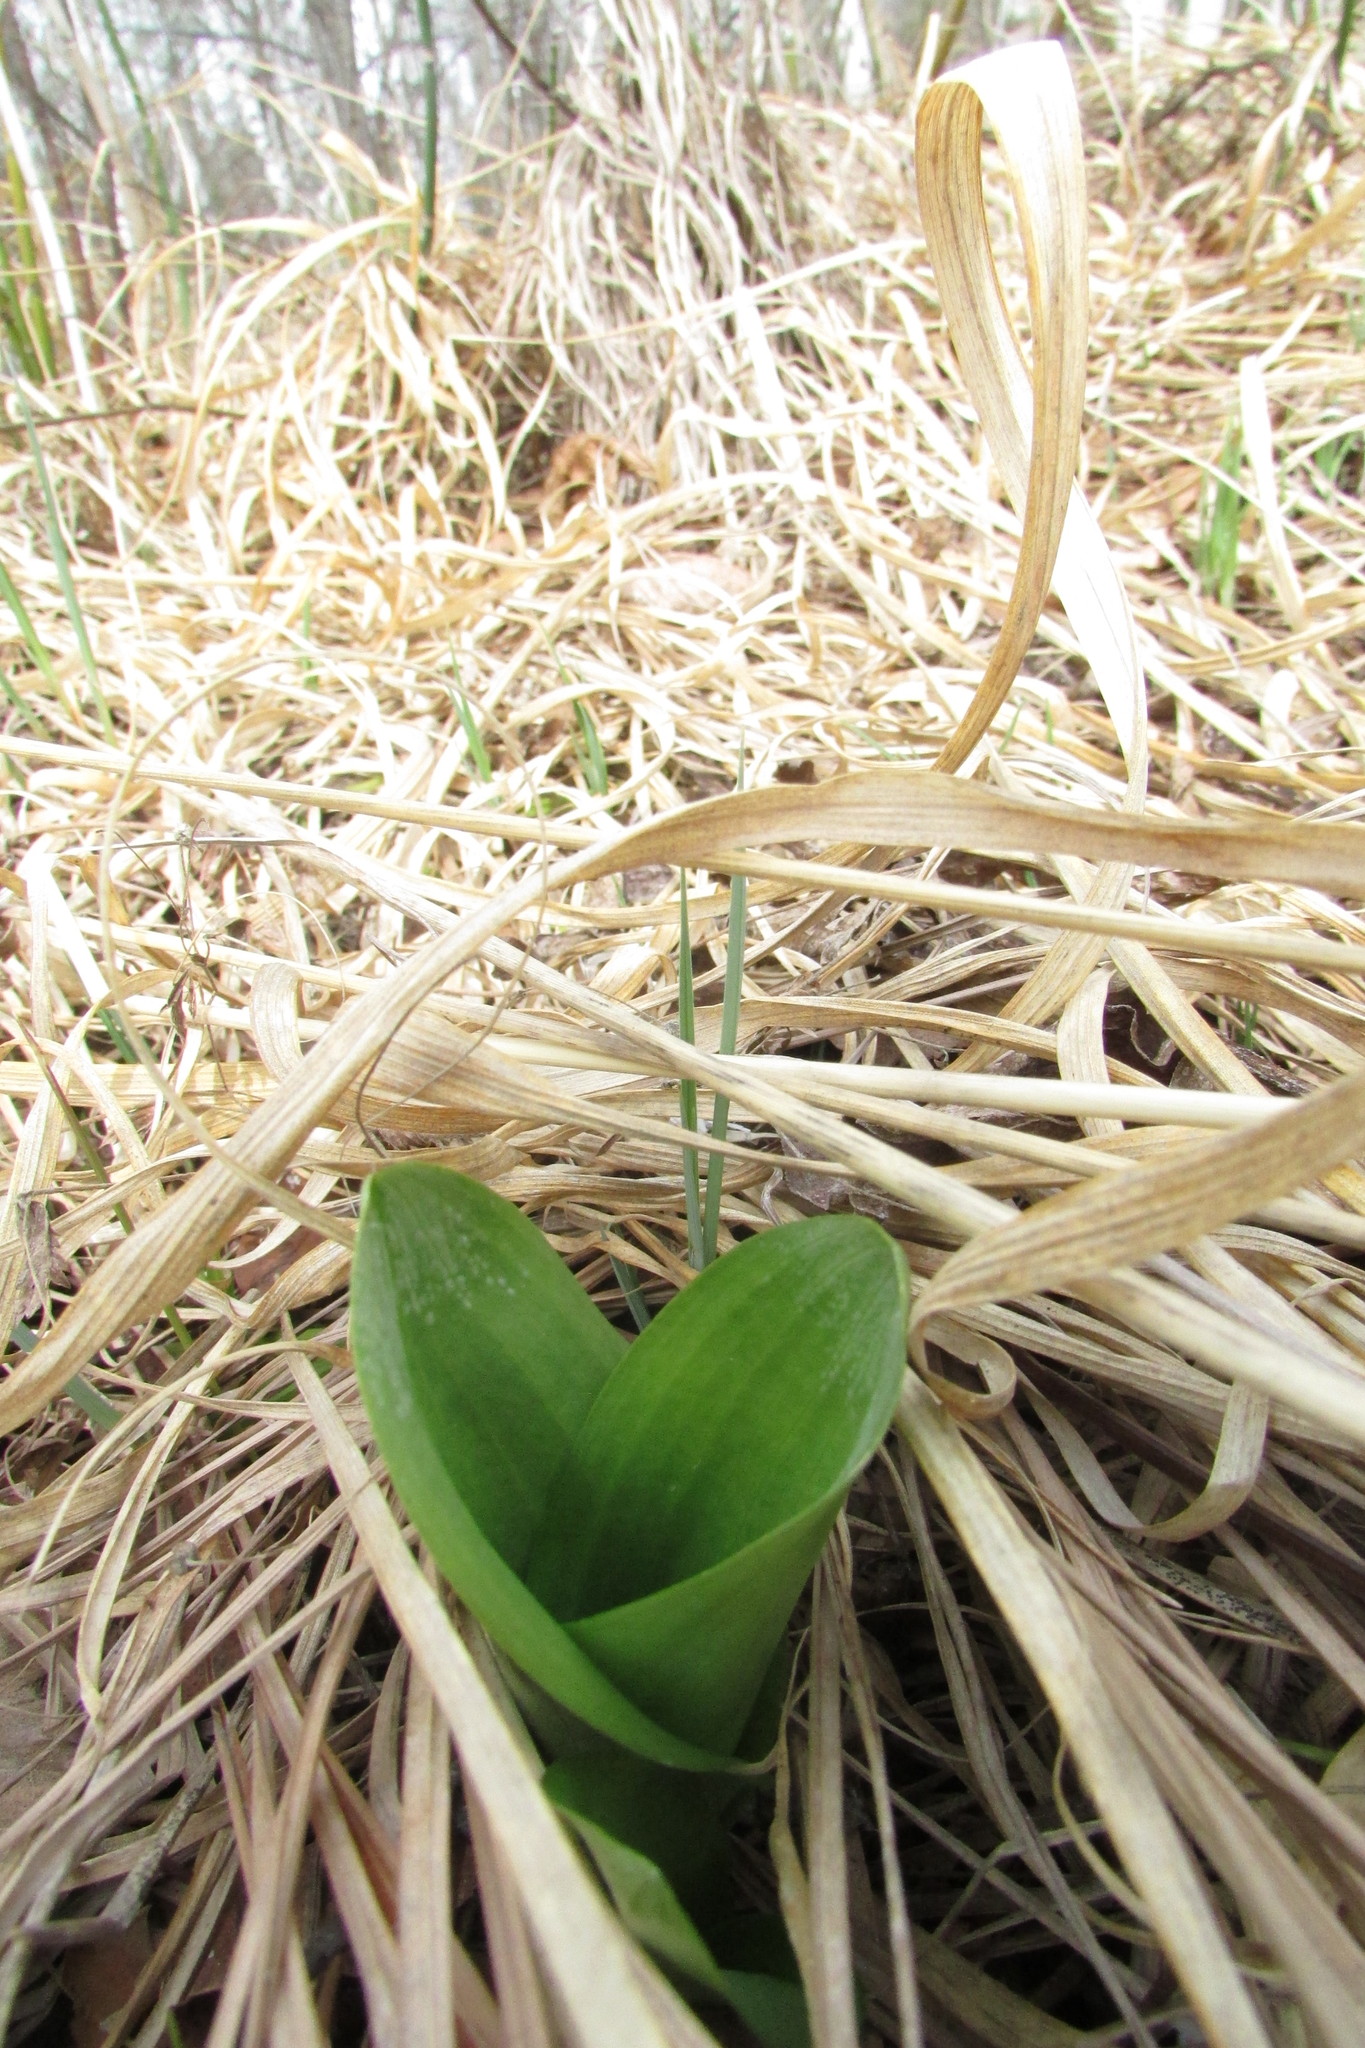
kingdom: Plantae
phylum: Tracheophyta
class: Liliopsida
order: Asparagales
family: Orchidaceae
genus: Neottia
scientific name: Neottia ovata
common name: Common twayblade
